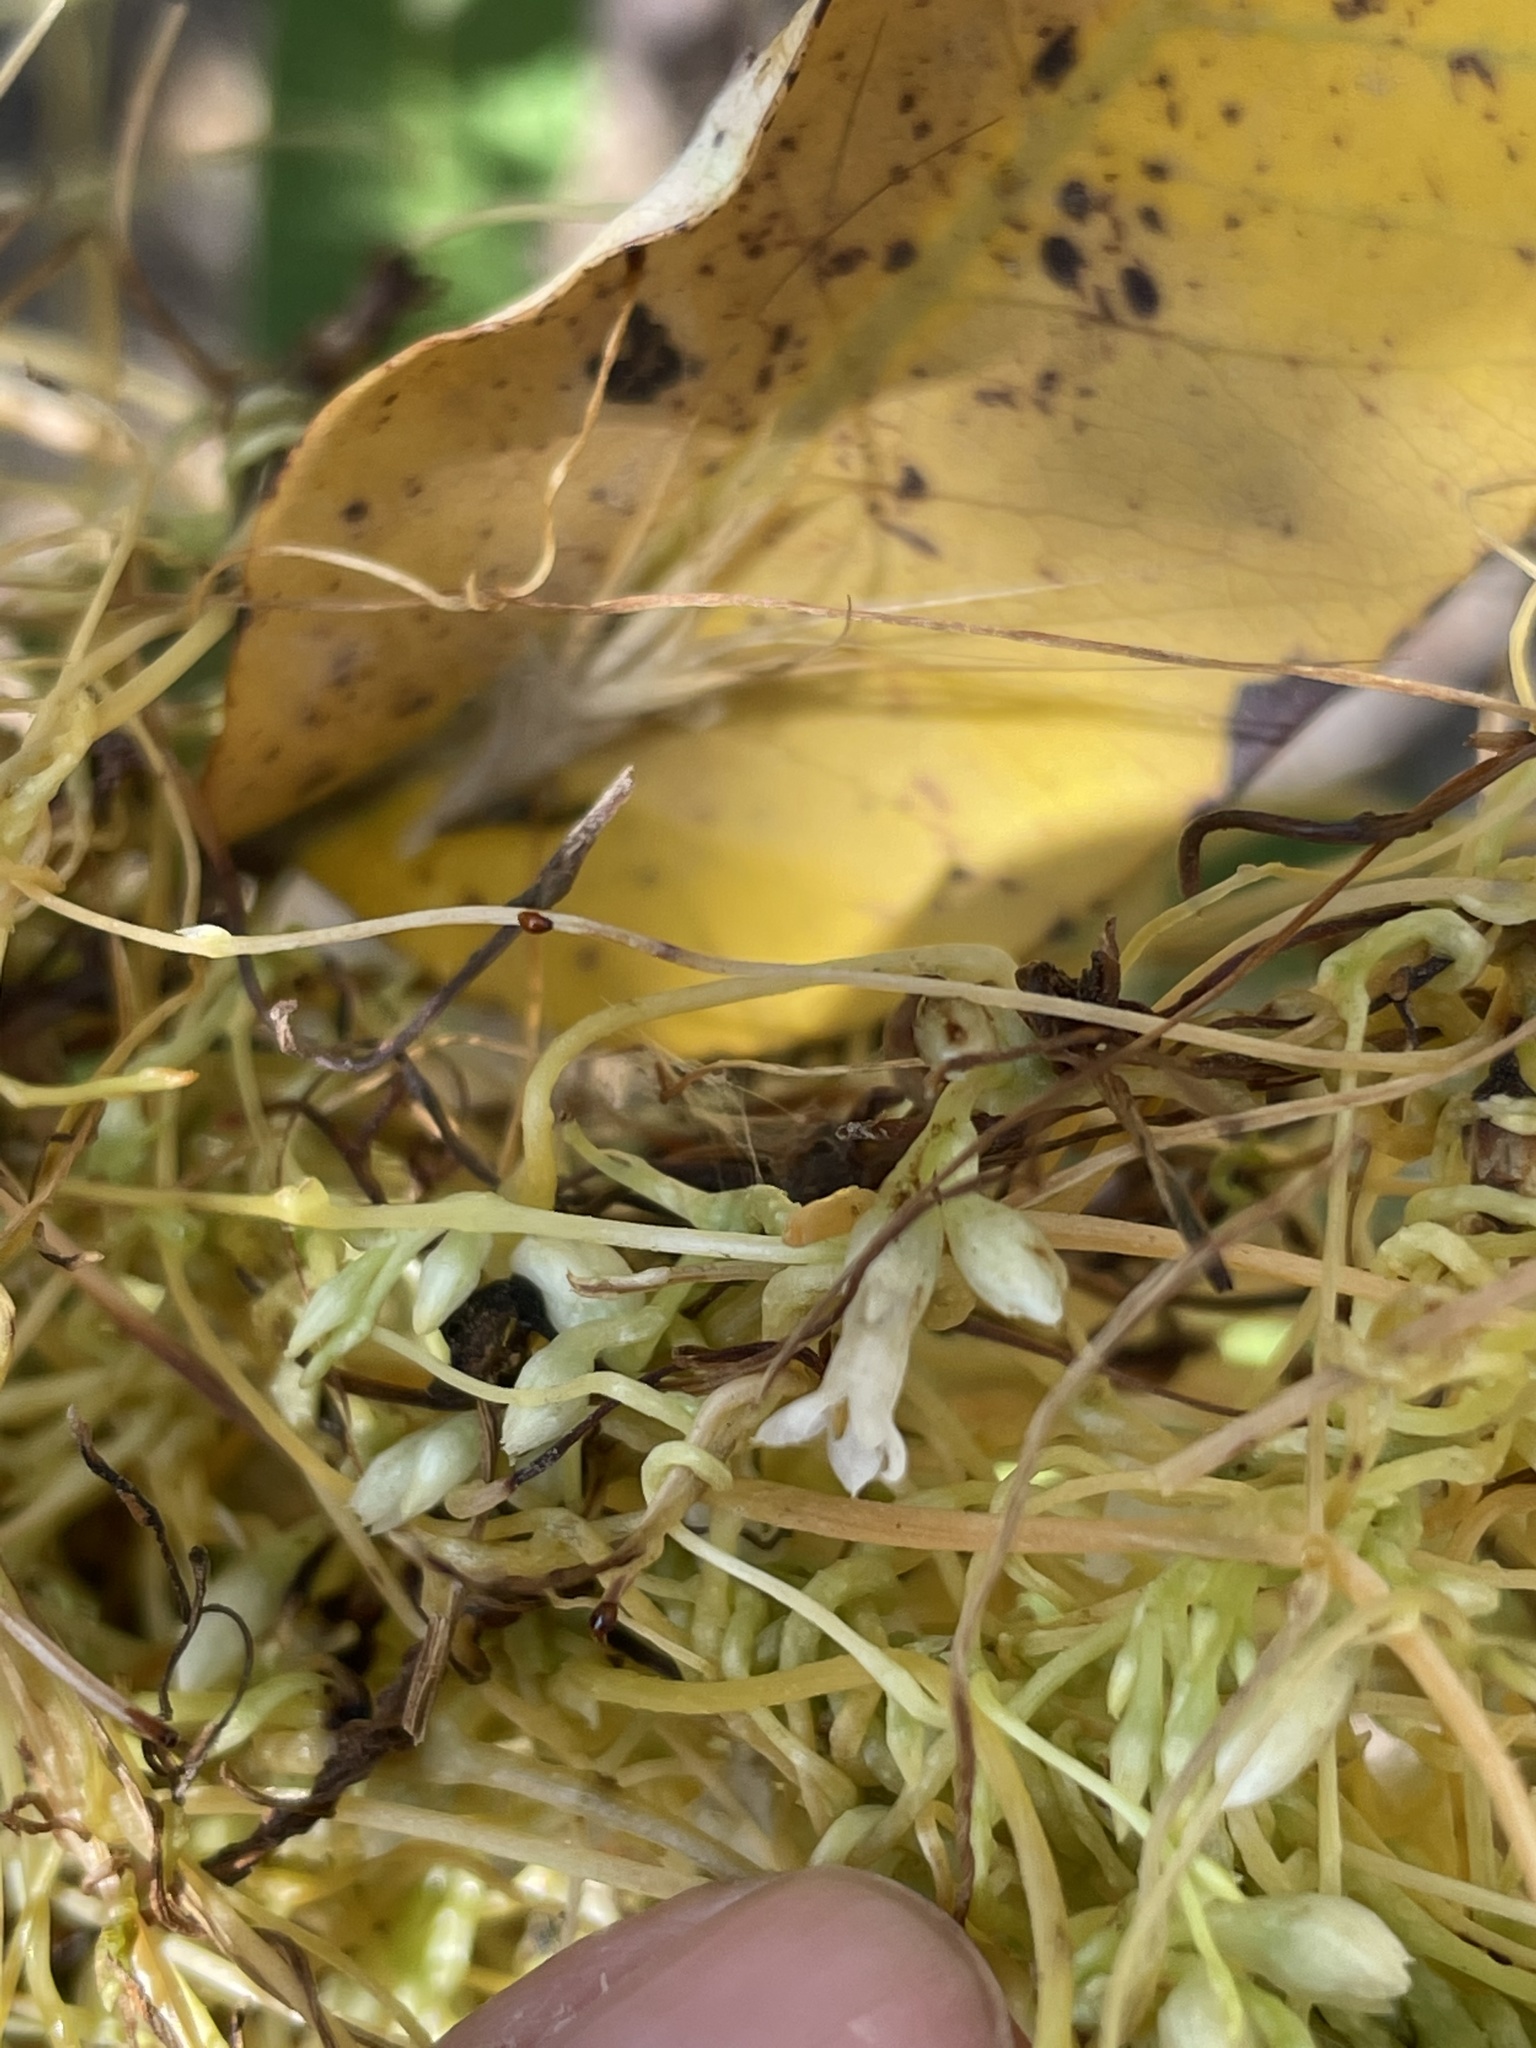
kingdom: Plantae
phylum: Tracheophyta
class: Magnoliopsida
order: Solanales
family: Convolvulaceae
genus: Cuscuta
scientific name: Cuscuta subinclusa
